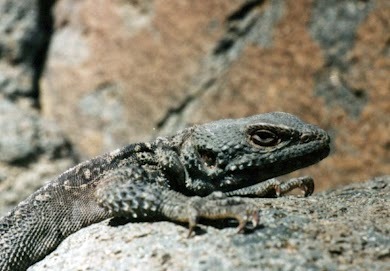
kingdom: Animalia
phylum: Chordata
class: Squamata
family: Agamidae
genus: Paralaudakia
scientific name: Paralaudakia caucasia
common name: Caucasian agama
